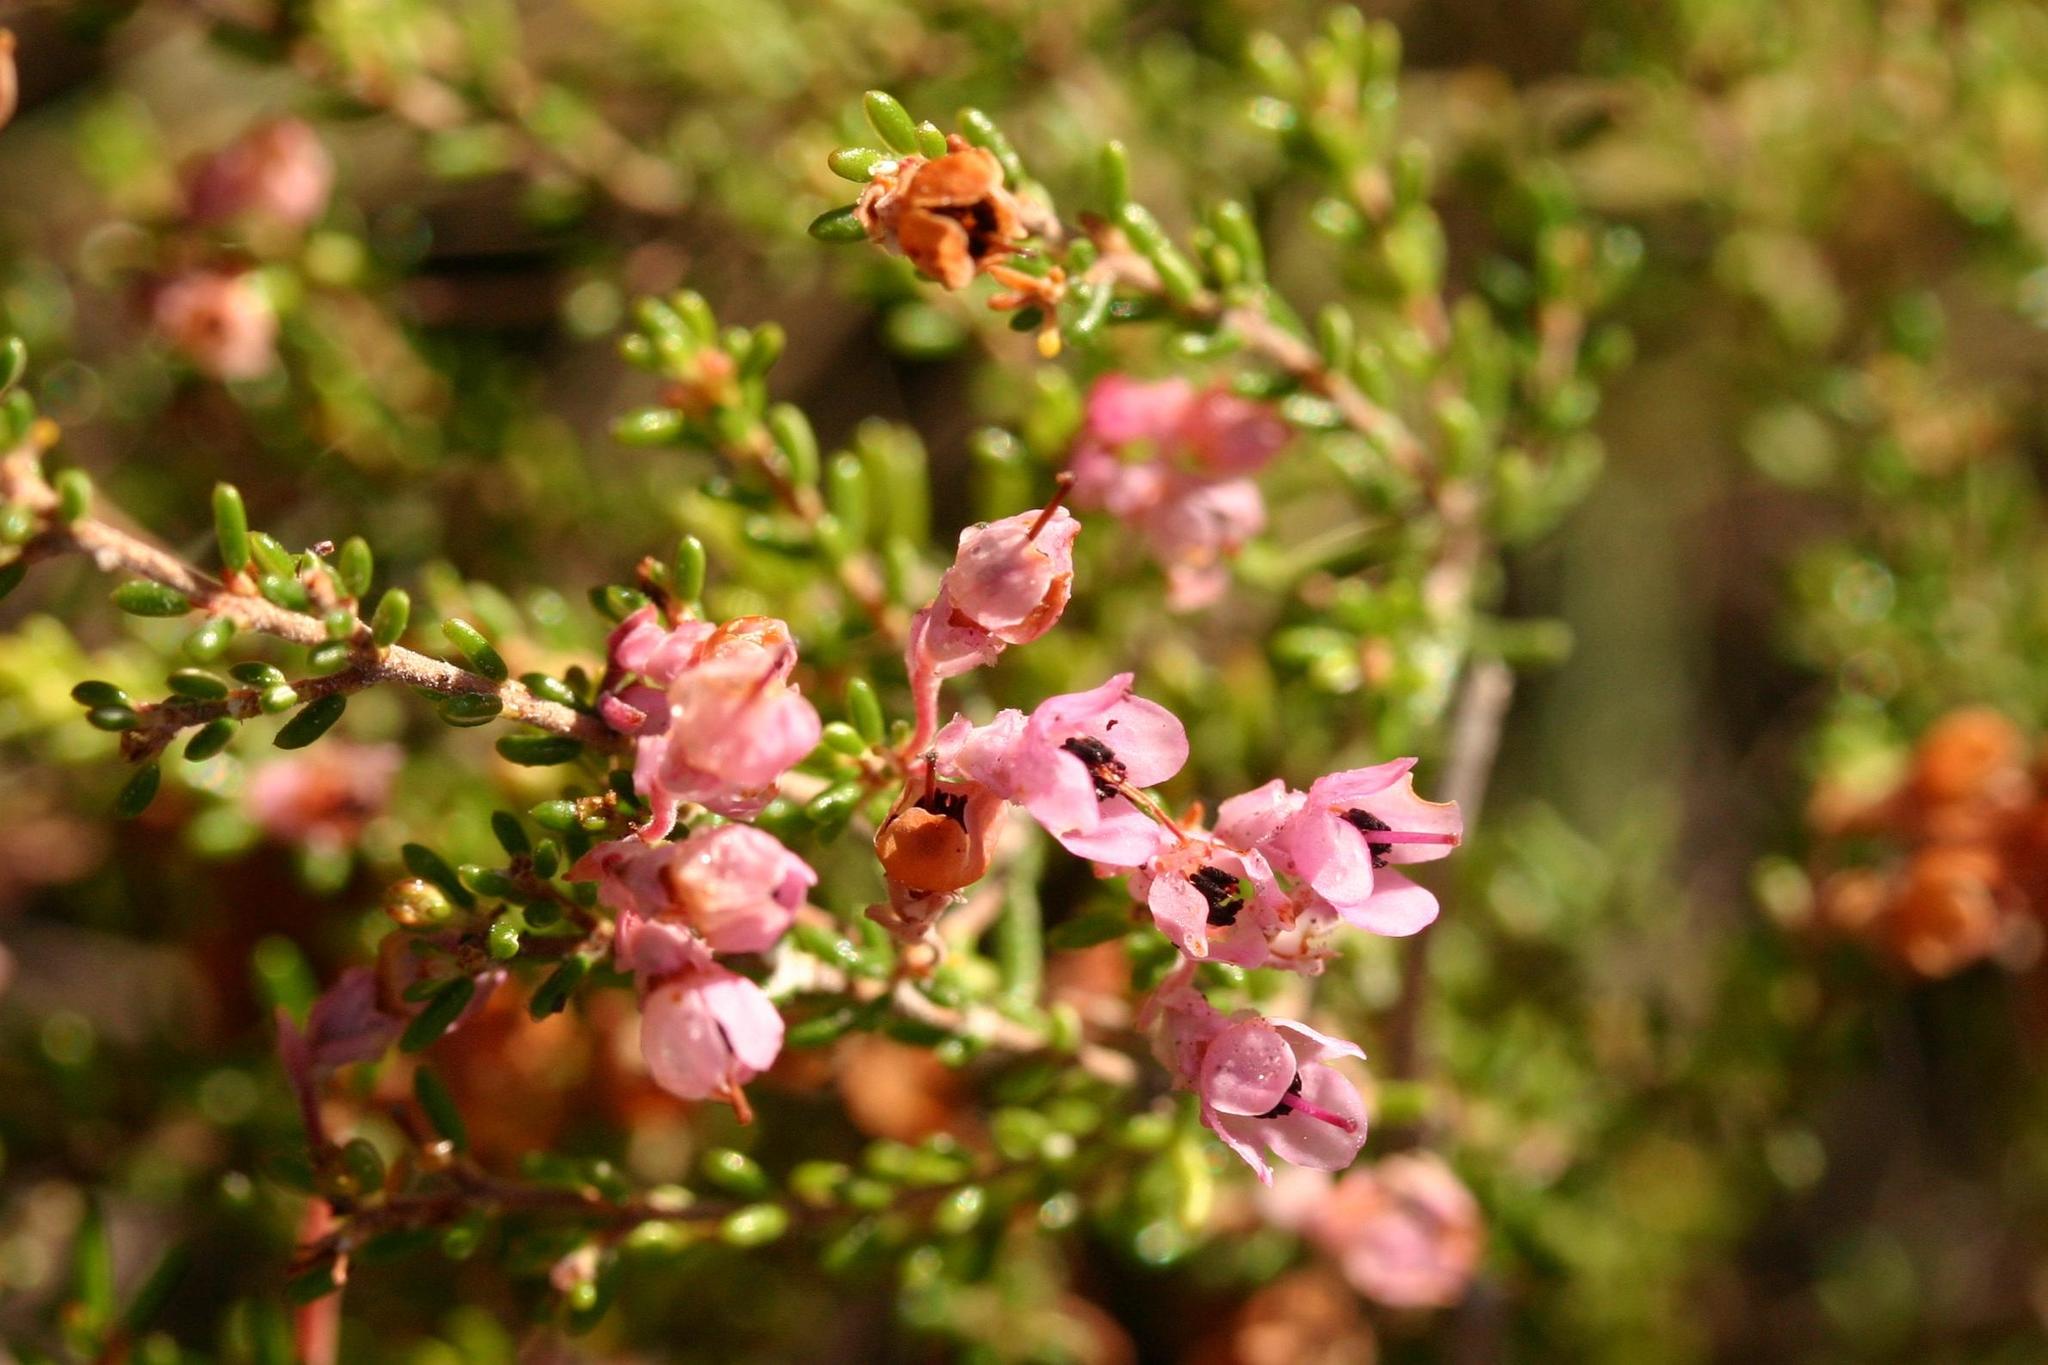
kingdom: Plantae
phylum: Tracheophyta
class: Magnoliopsida
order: Ericales
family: Ericaceae
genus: Erica
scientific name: Erica melanthera
